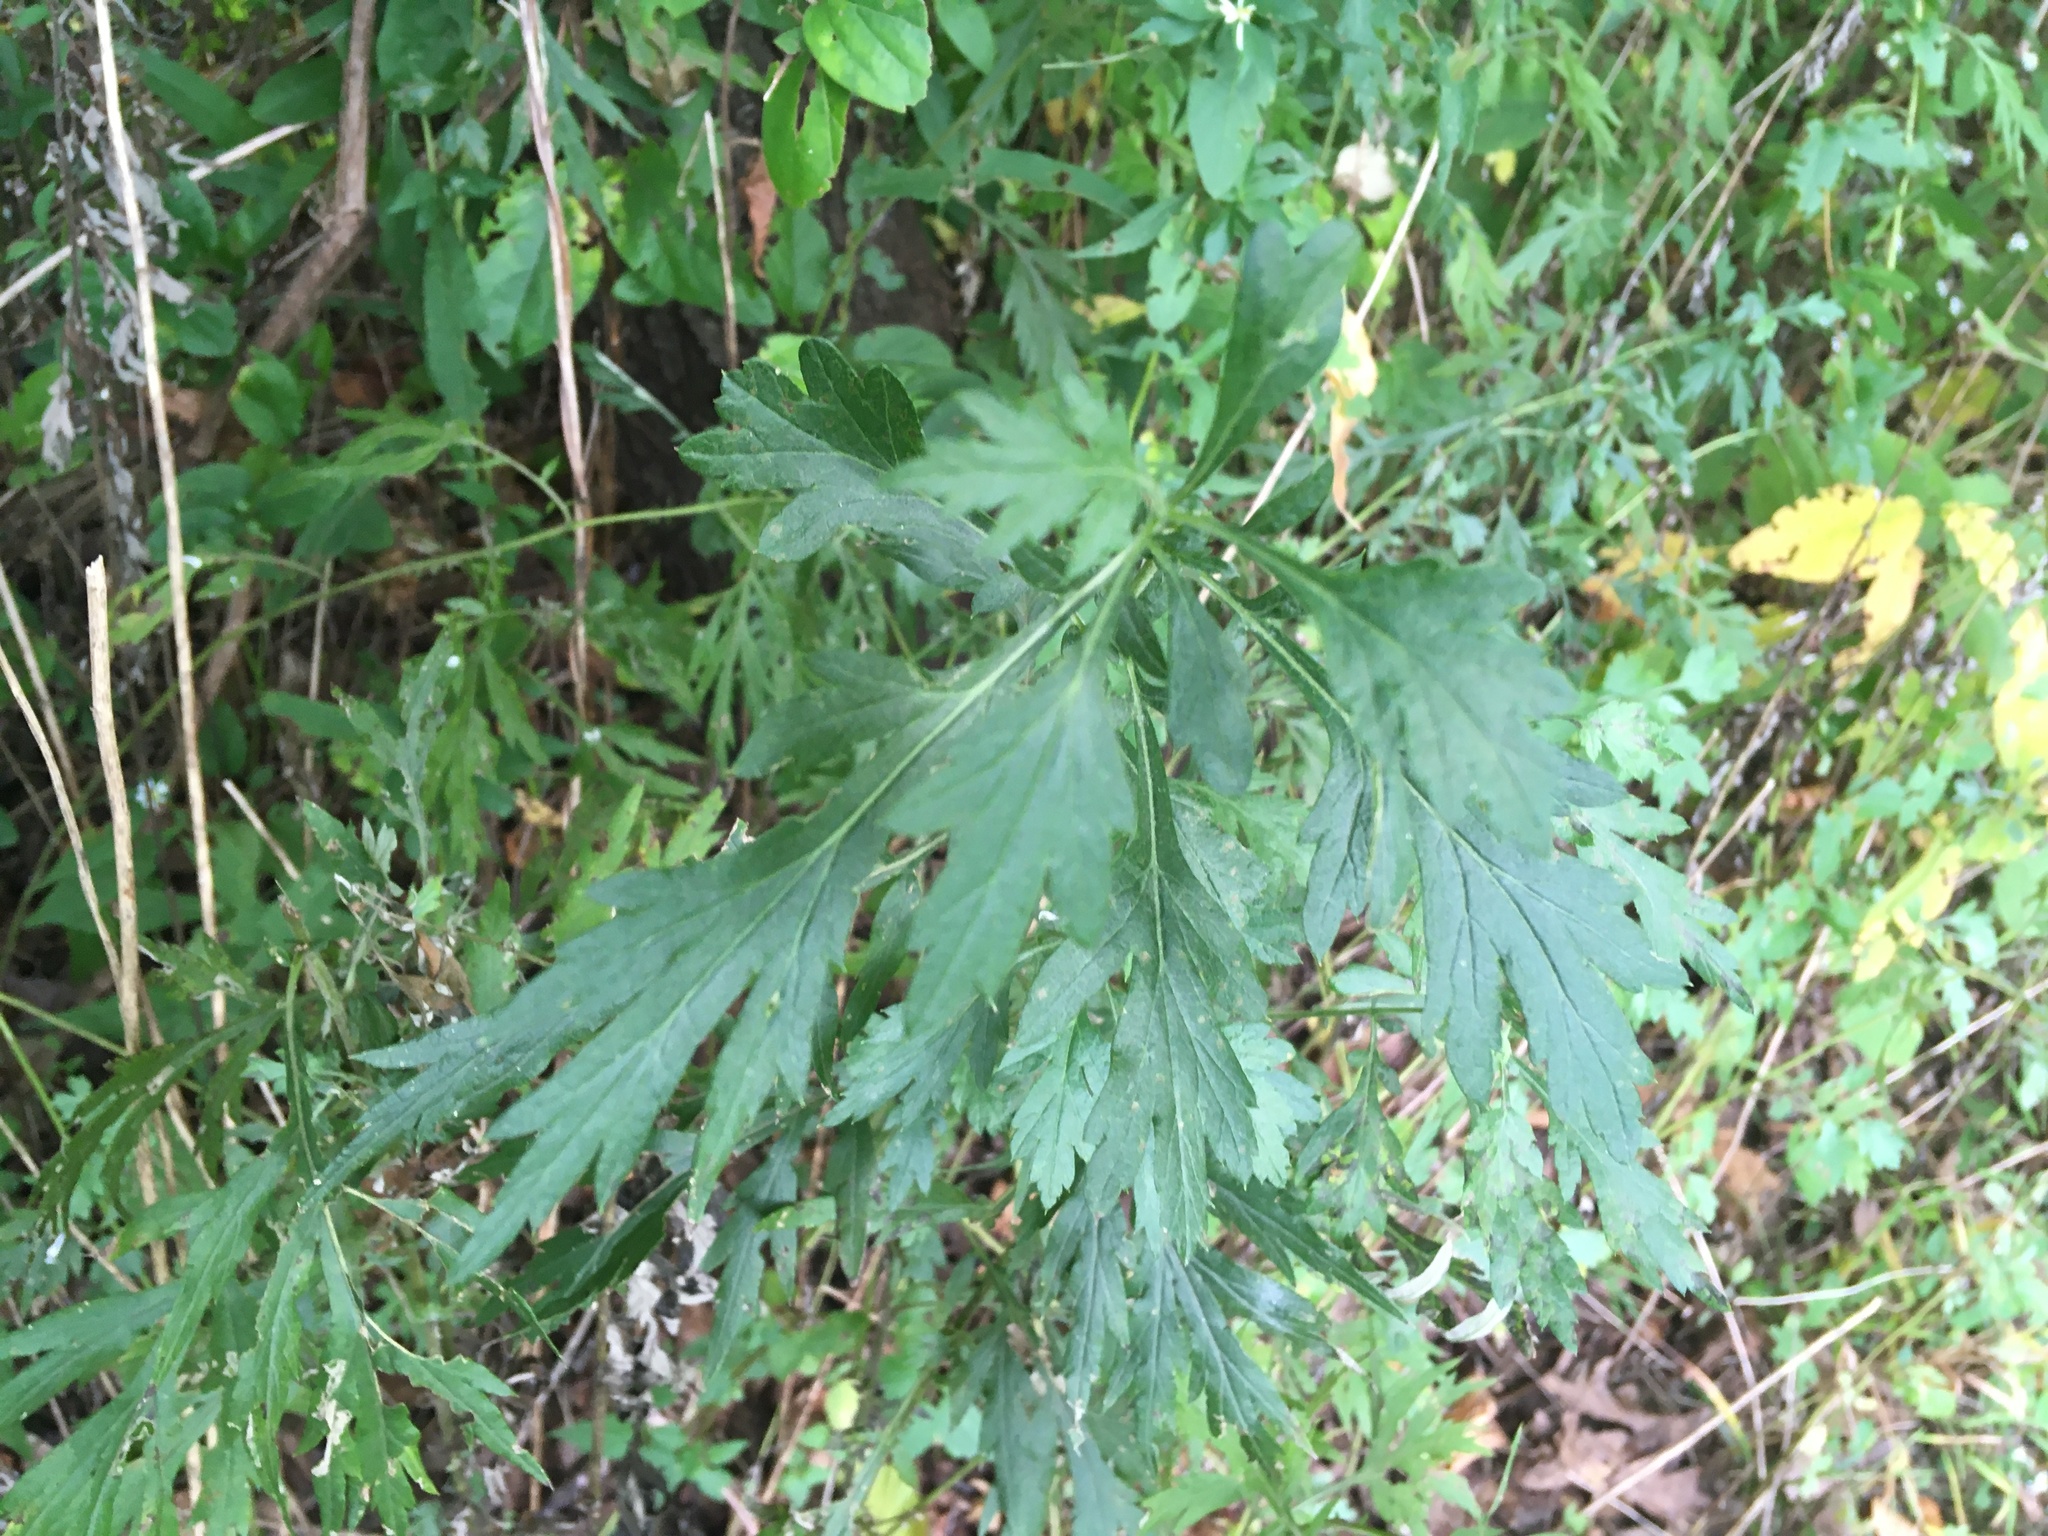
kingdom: Plantae
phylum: Tracheophyta
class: Magnoliopsida
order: Asterales
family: Asteraceae
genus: Artemisia
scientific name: Artemisia vulgaris
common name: Mugwort
